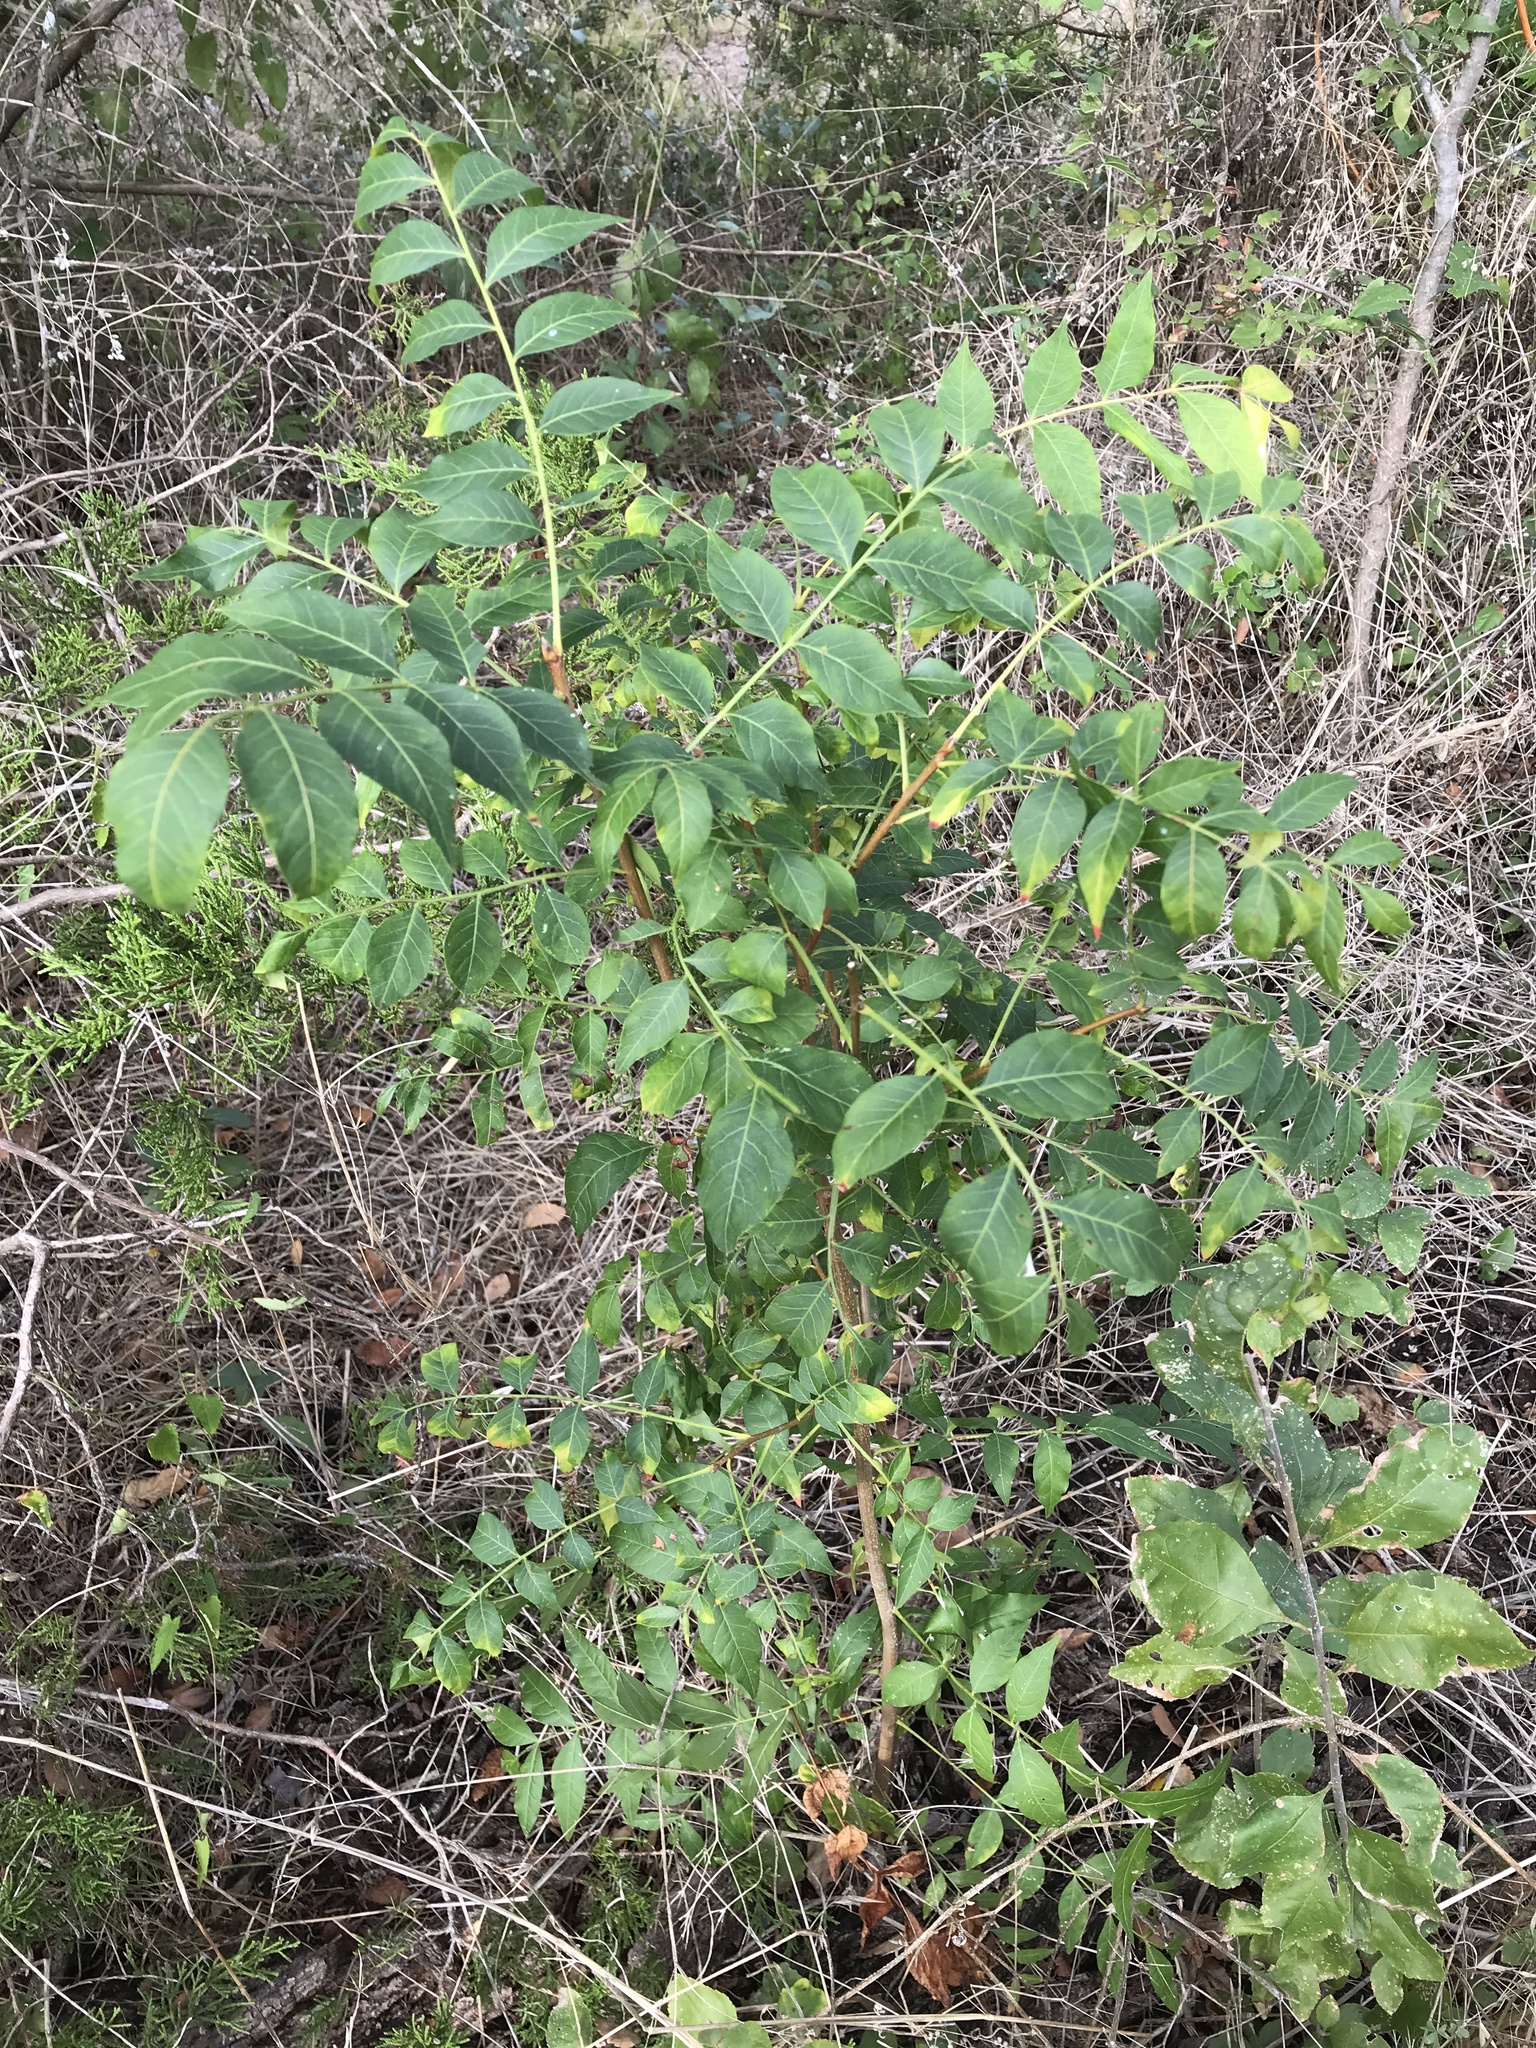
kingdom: Plantae
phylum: Tracheophyta
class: Magnoliopsida
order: Sapindales
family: Anacardiaceae
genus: Pistacia
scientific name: Pistacia chinensis
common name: Chinese pistache
